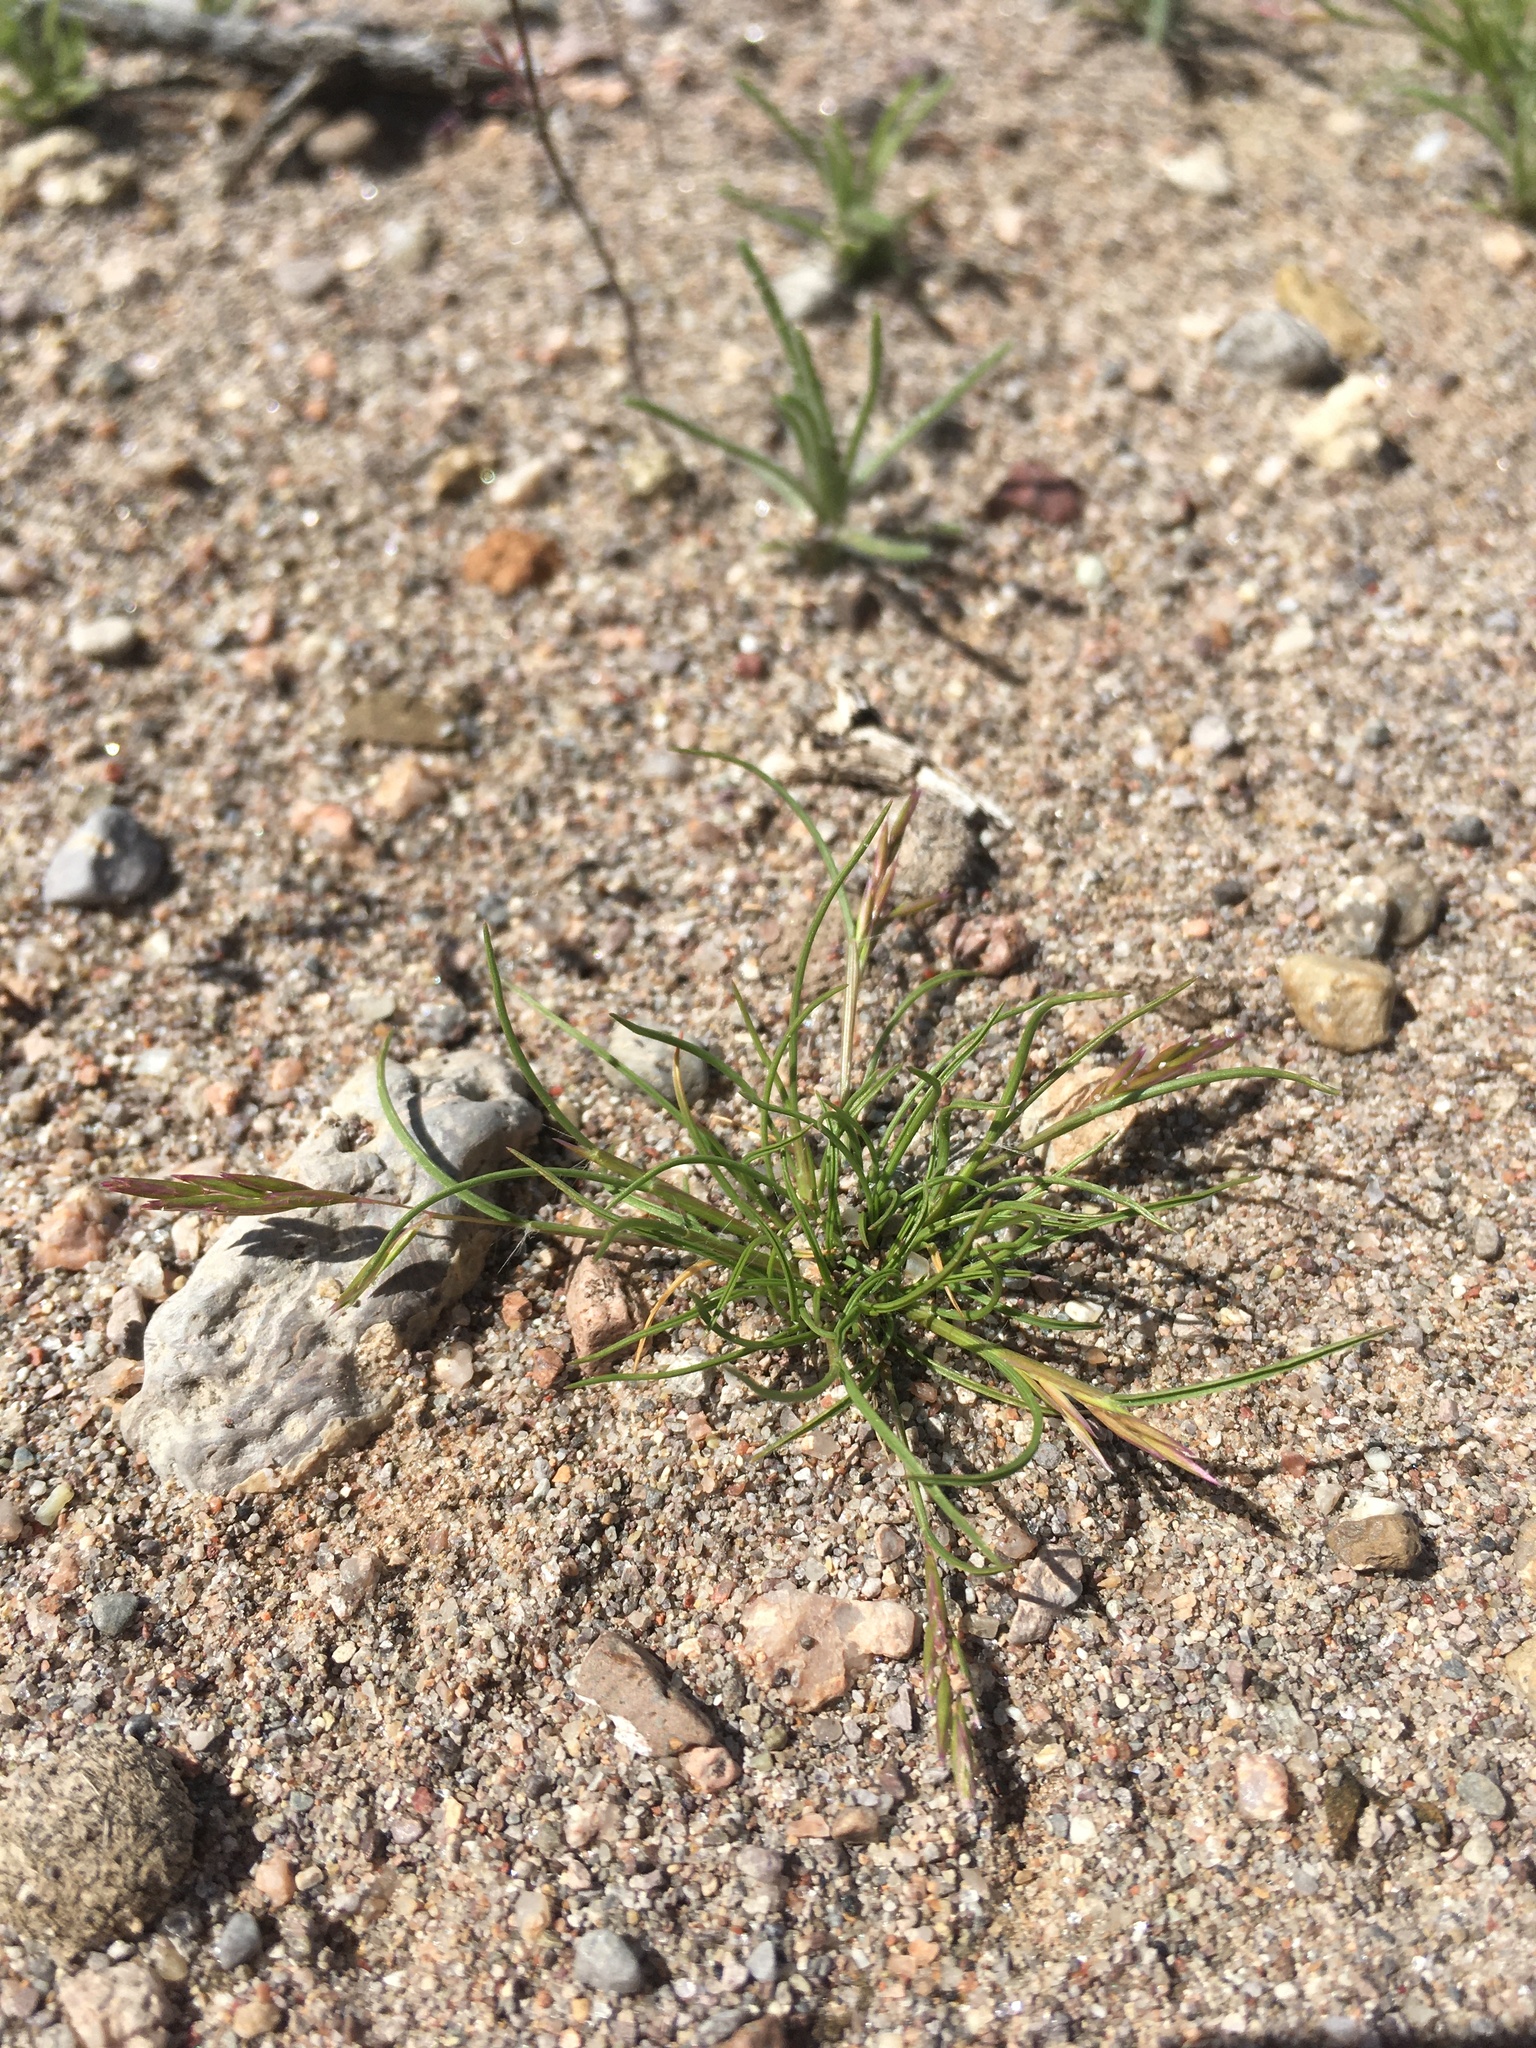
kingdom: Plantae
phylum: Tracheophyta
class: Liliopsida
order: Poales
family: Poaceae
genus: Schismus
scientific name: Schismus barbatus
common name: Kelch-grass
